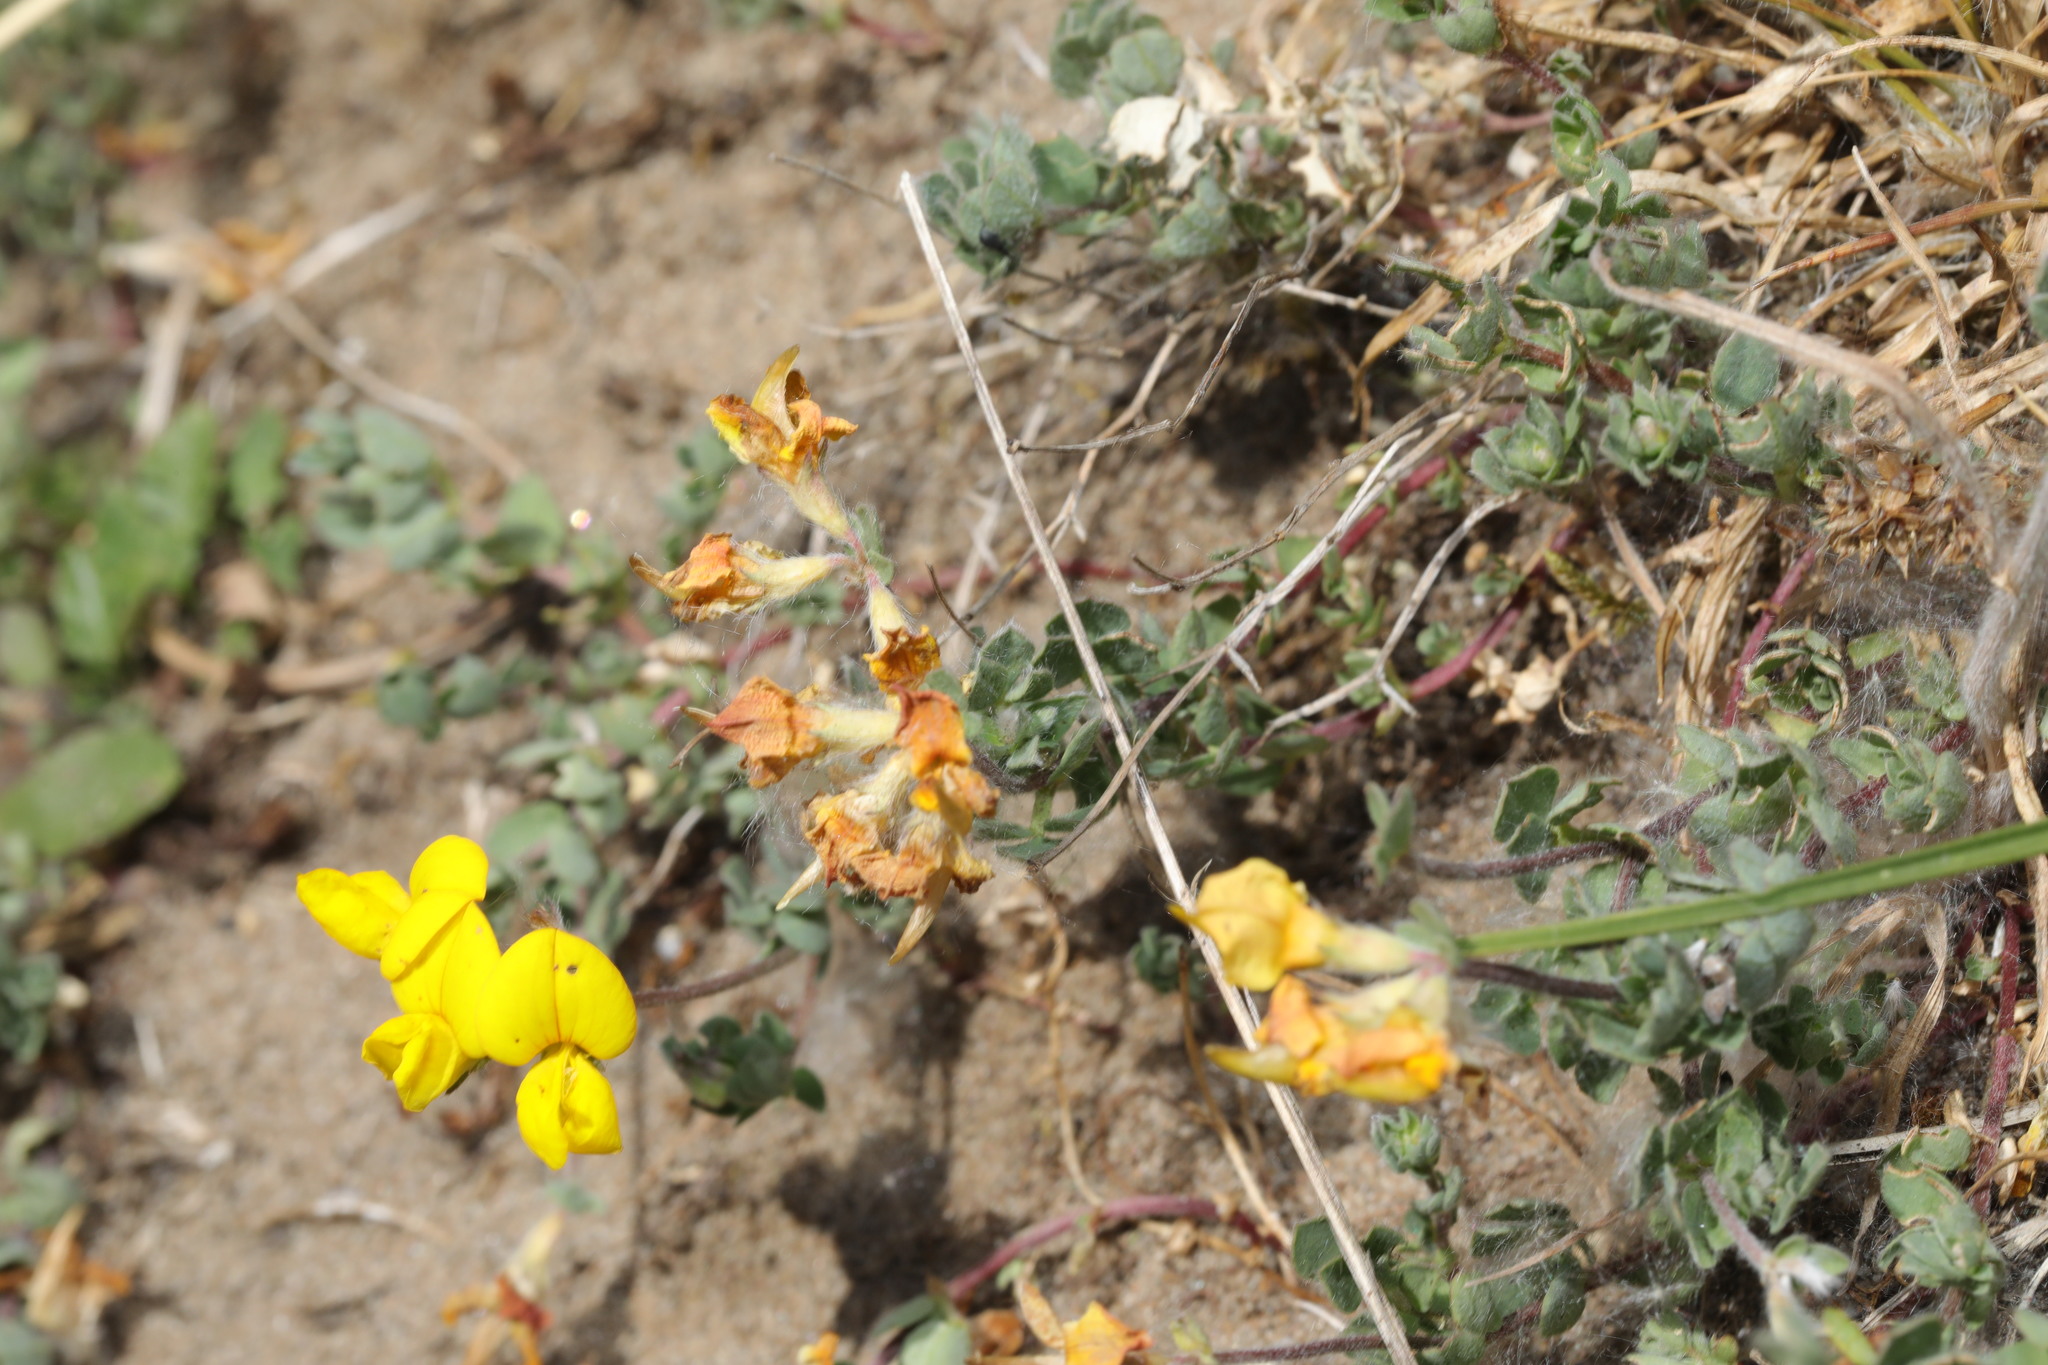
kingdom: Plantae
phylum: Tracheophyta
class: Magnoliopsida
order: Fabales
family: Fabaceae
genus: Lotus
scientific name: Lotus corniculatus
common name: Common bird's-foot-trefoil
